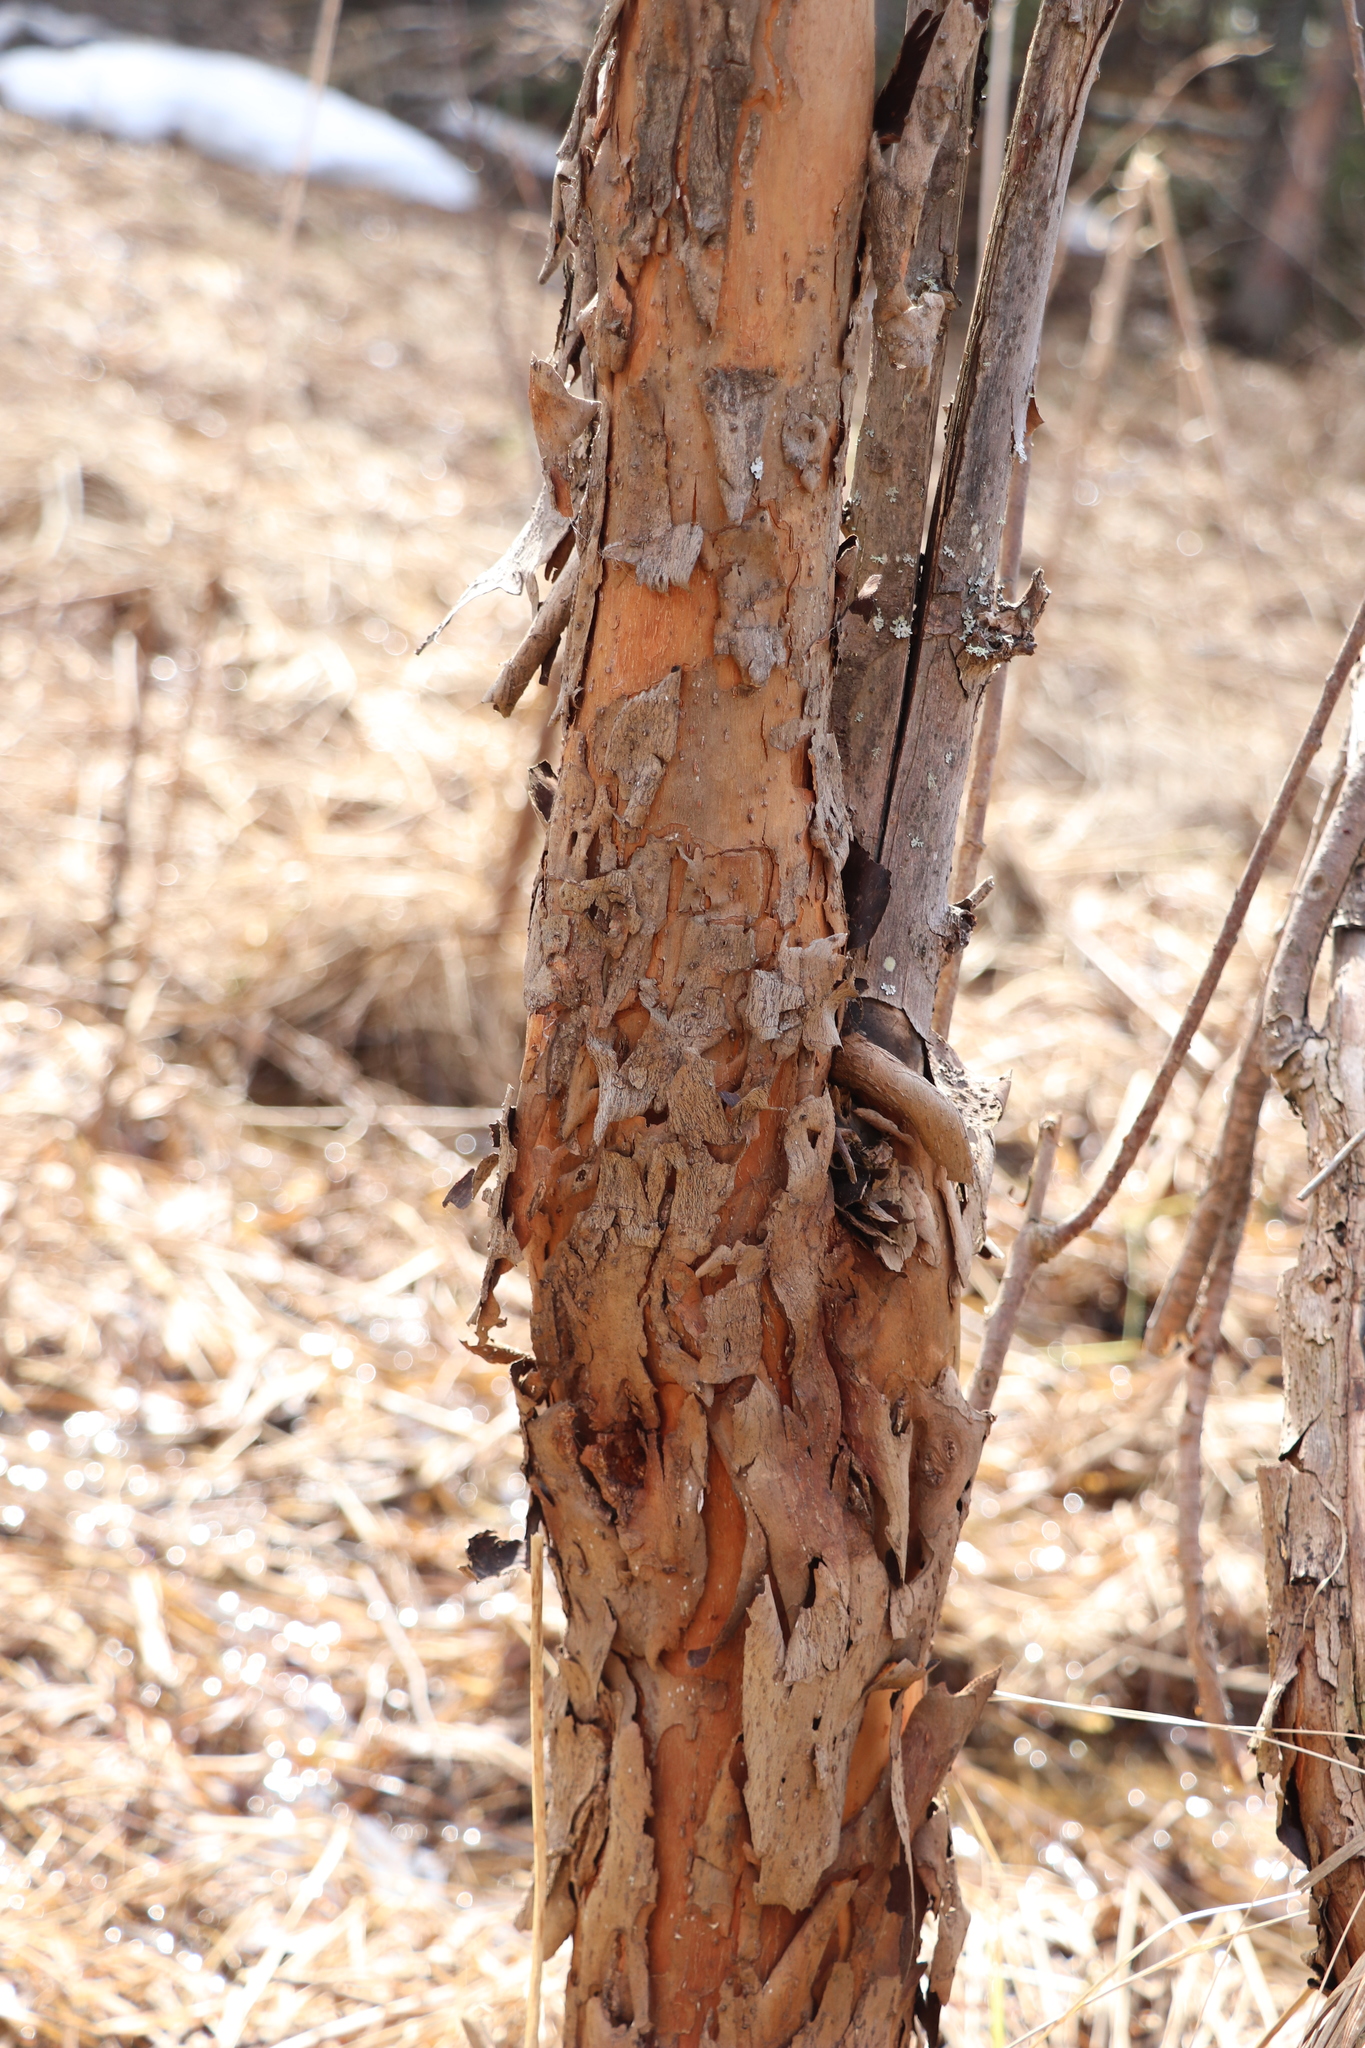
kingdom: Plantae
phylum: Tracheophyta
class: Magnoliopsida
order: Malpighiales
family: Salicaceae
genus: Salix
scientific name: Salix triandra
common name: Almond willow
